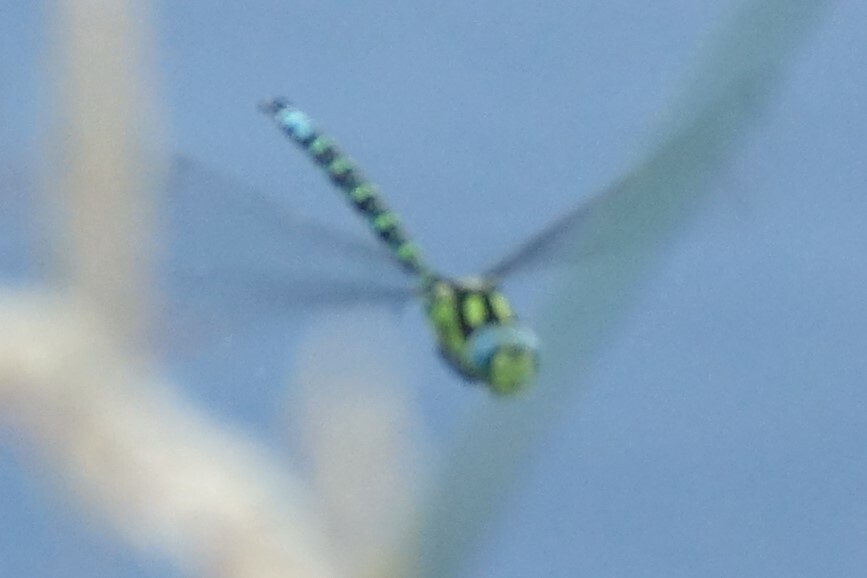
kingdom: Animalia
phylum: Arthropoda
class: Insecta
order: Odonata
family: Aeshnidae
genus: Aeshna
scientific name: Aeshna cyanea
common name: Southern hawker
